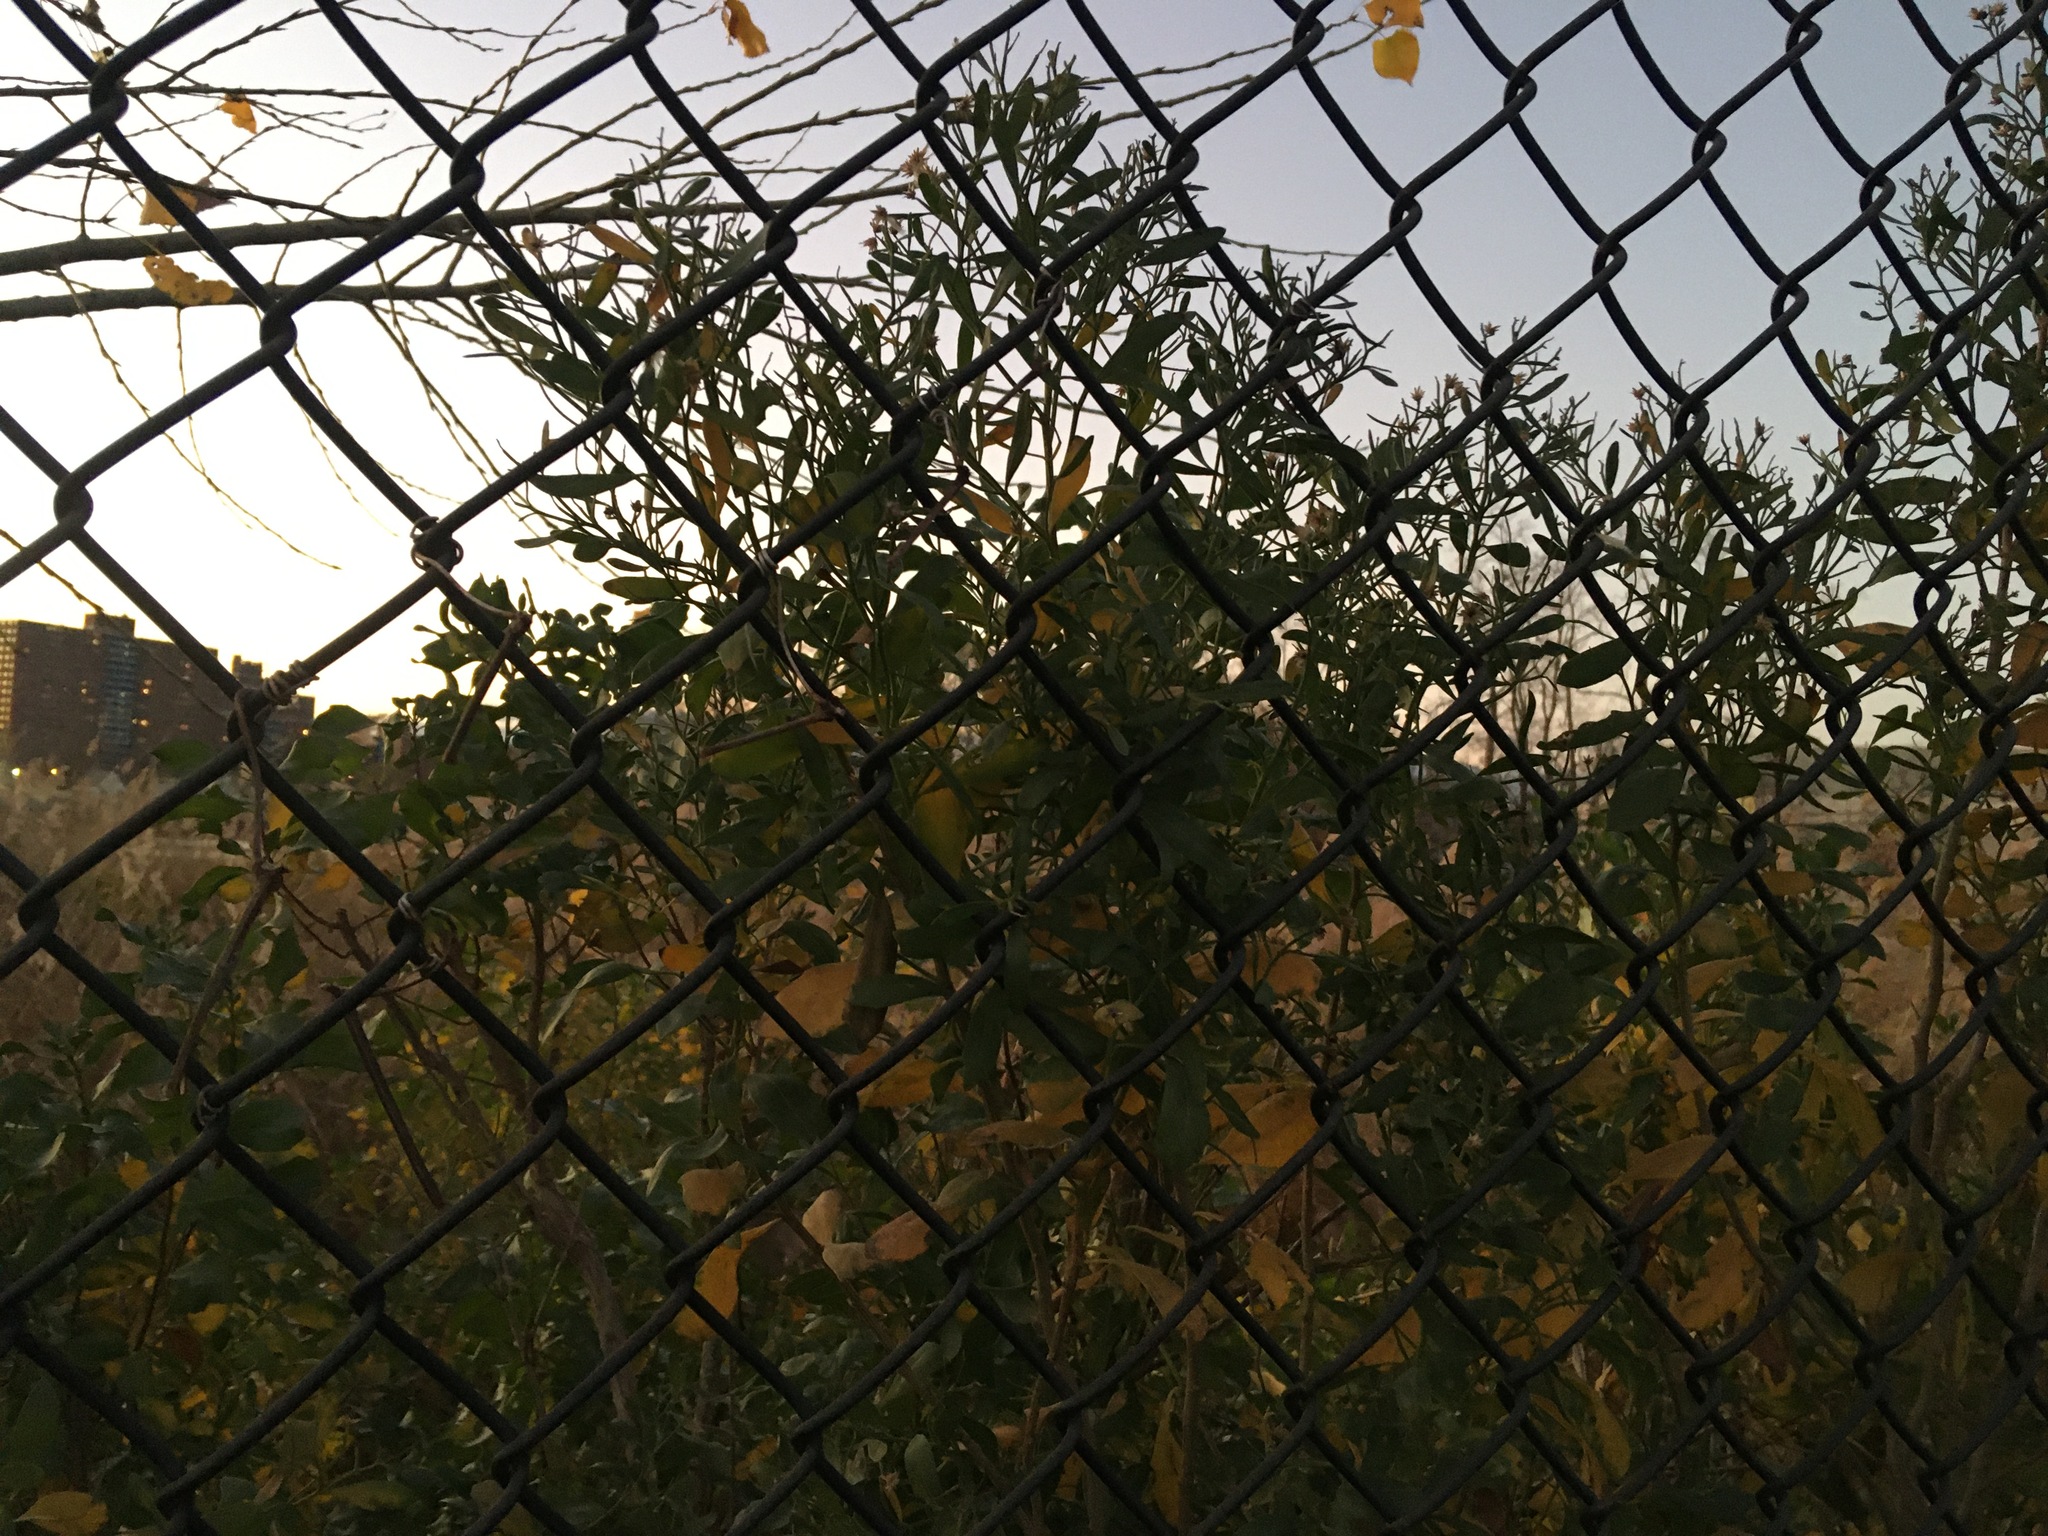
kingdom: Plantae
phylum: Tracheophyta
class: Magnoliopsida
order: Asterales
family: Asteraceae
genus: Baccharis
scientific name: Baccharis halimifolia
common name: Eastern baccharis
